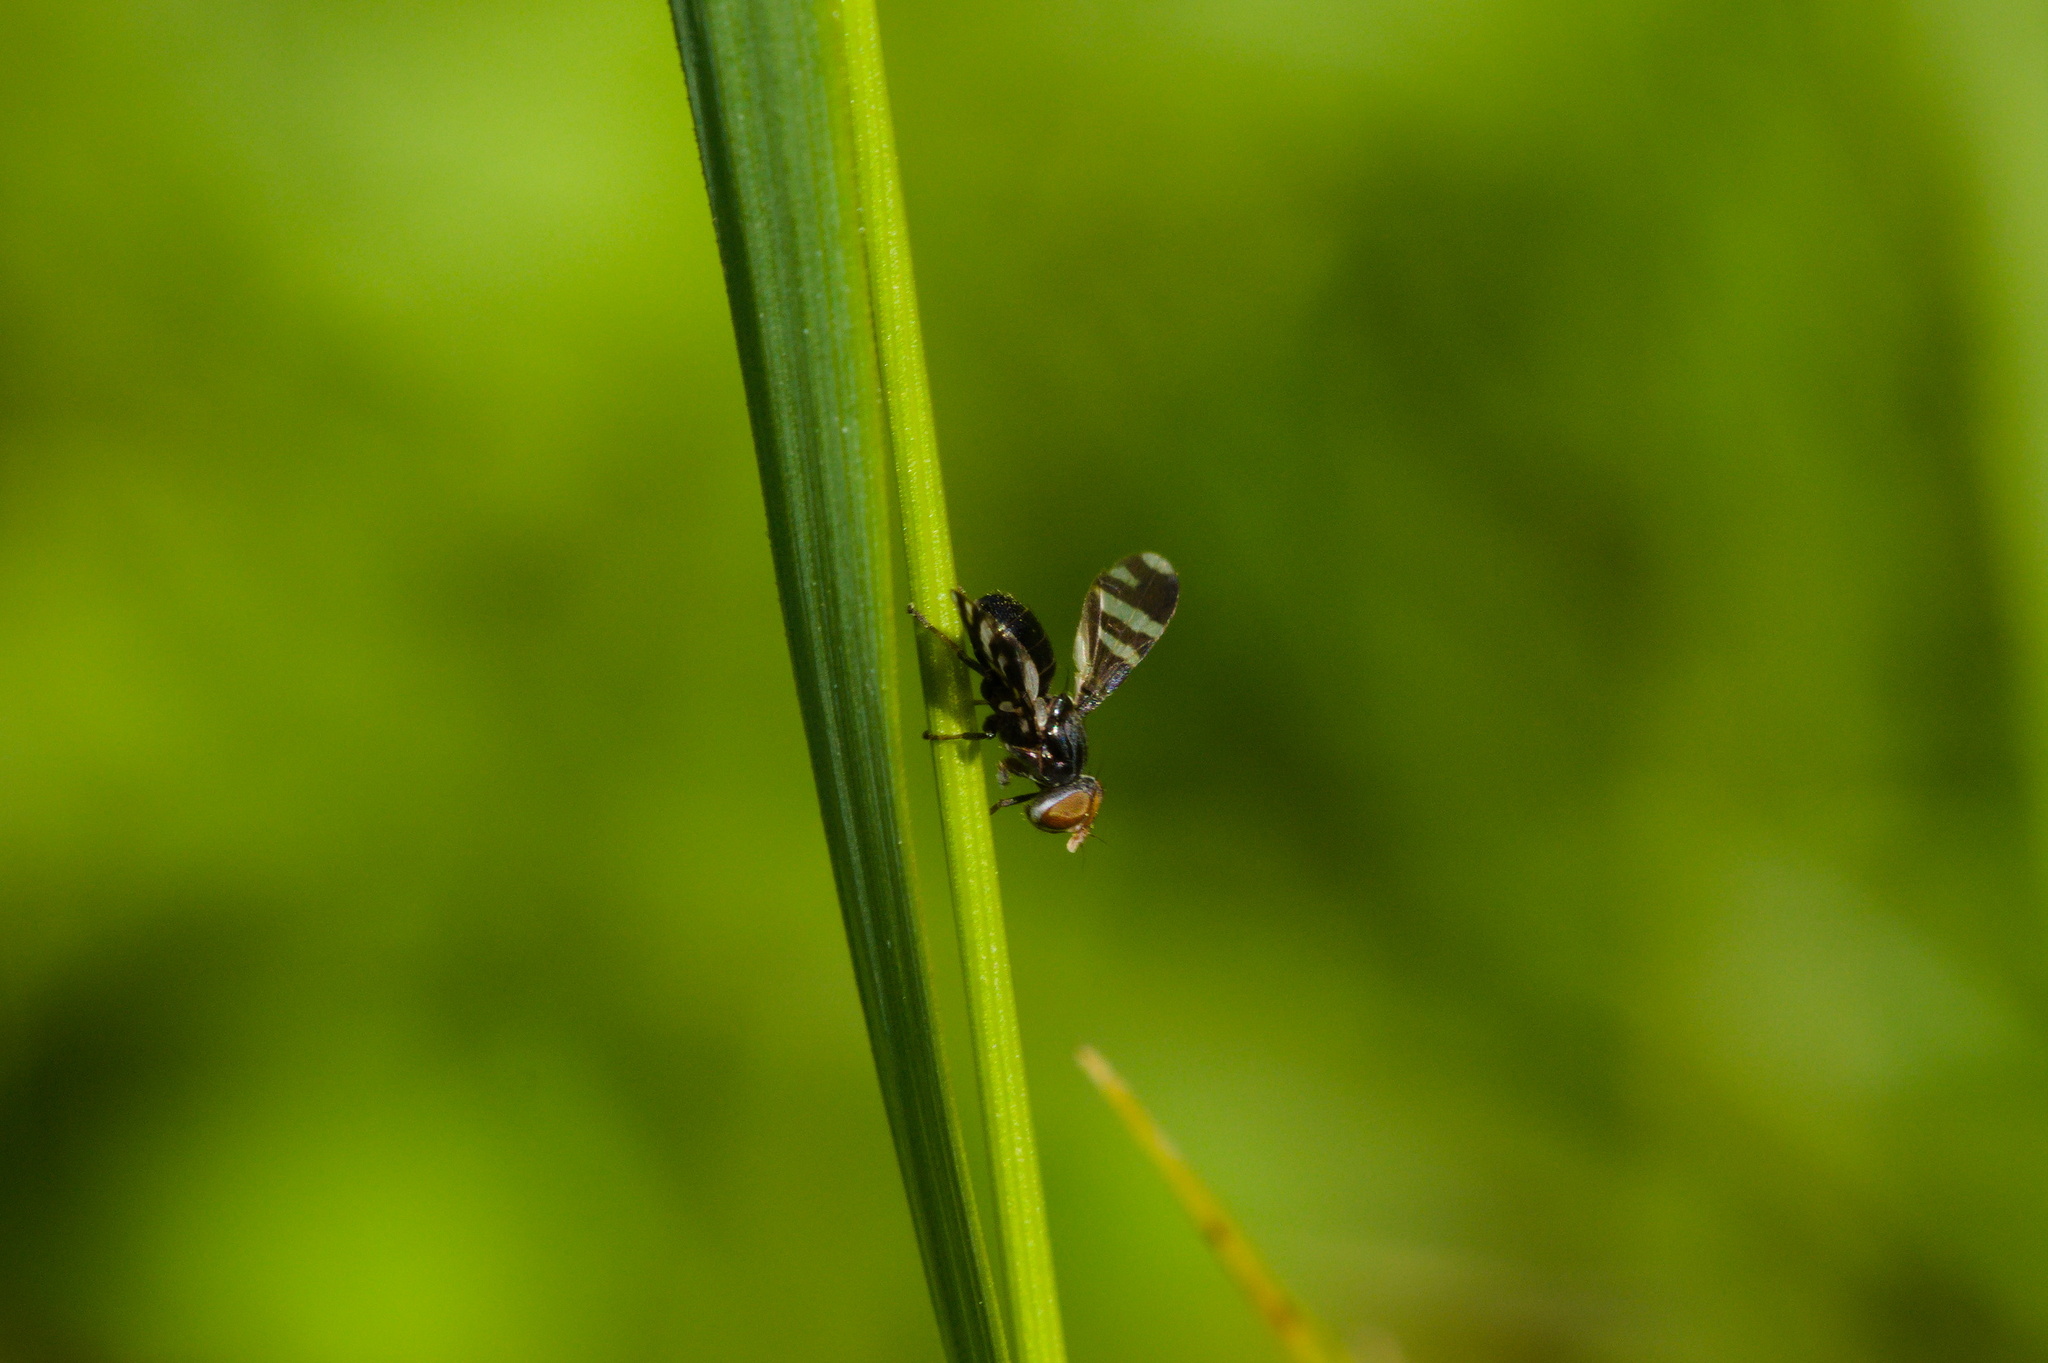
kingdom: Animalia
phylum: Arthropoda
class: Insecta
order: Diptera
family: Ulidiidae
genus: Herina
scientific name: Herina frondescentiae
